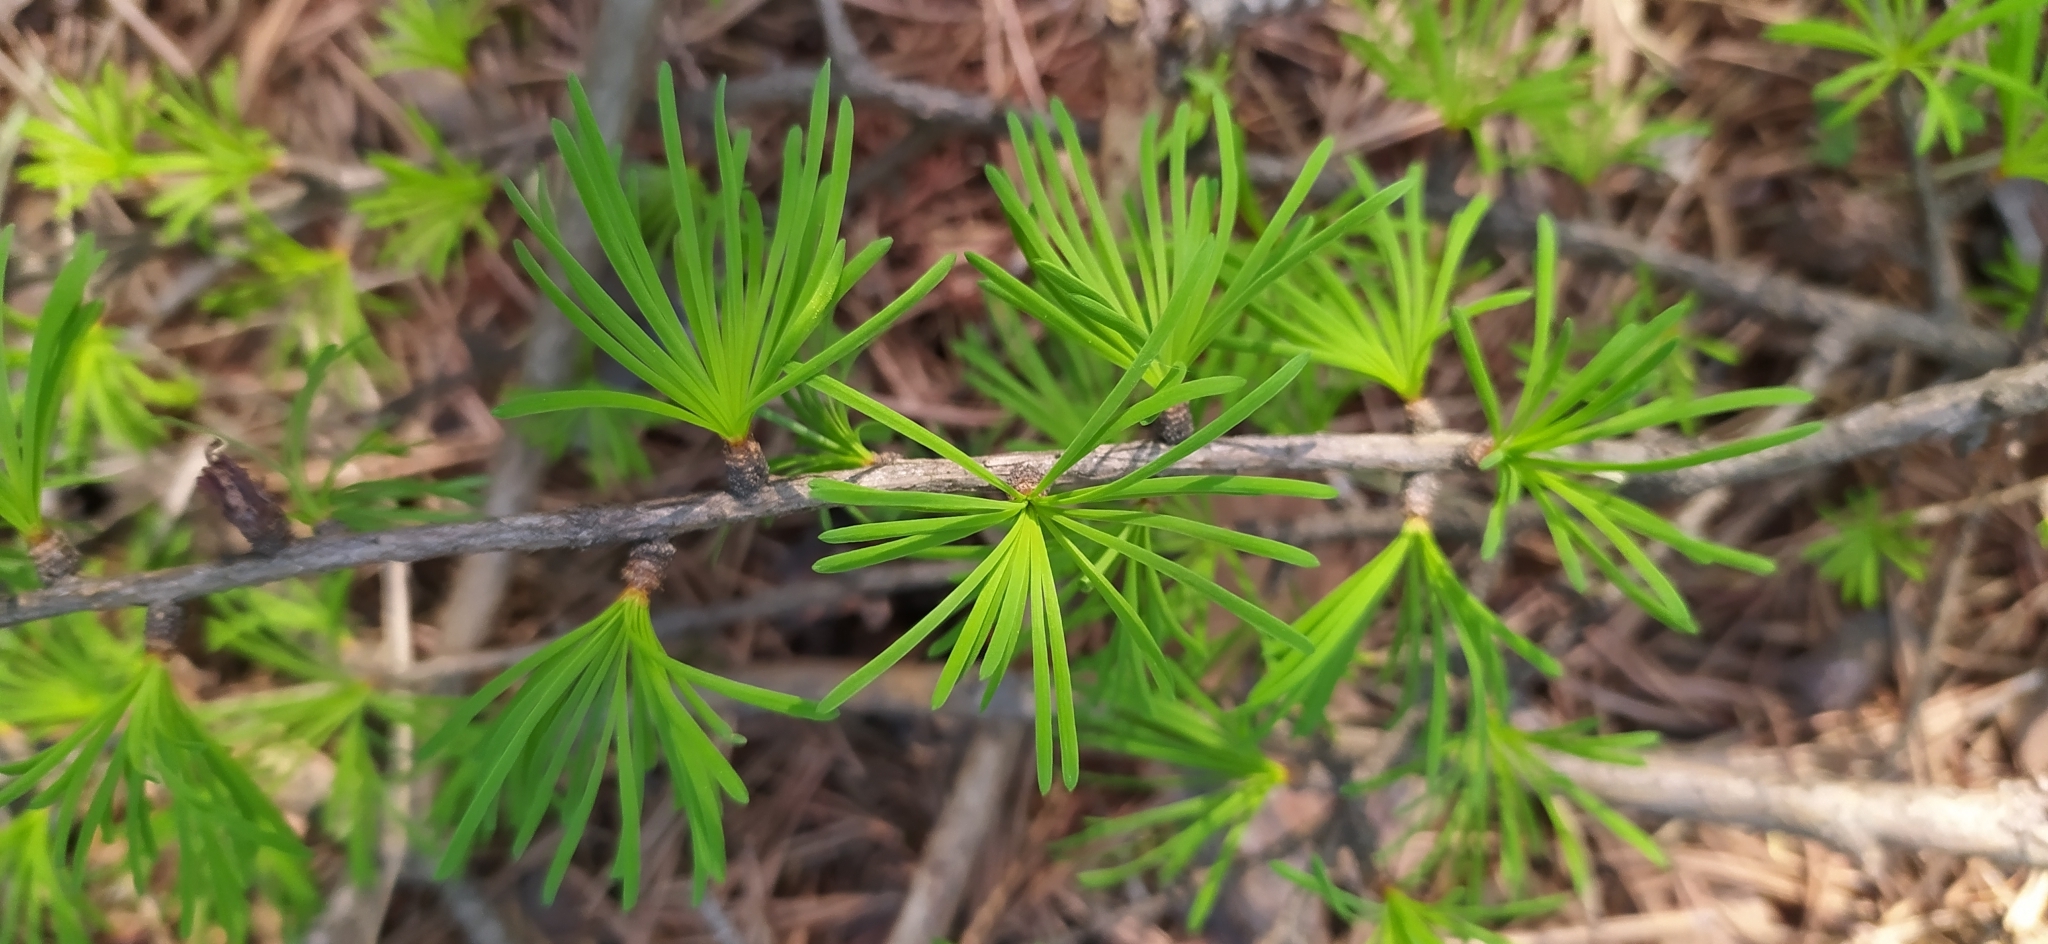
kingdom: Plantae
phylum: Tracheophyta
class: Pinopsida
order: Pinales
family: Pinaceae
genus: Larix
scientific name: Larix sibirica
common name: Siberian larch
